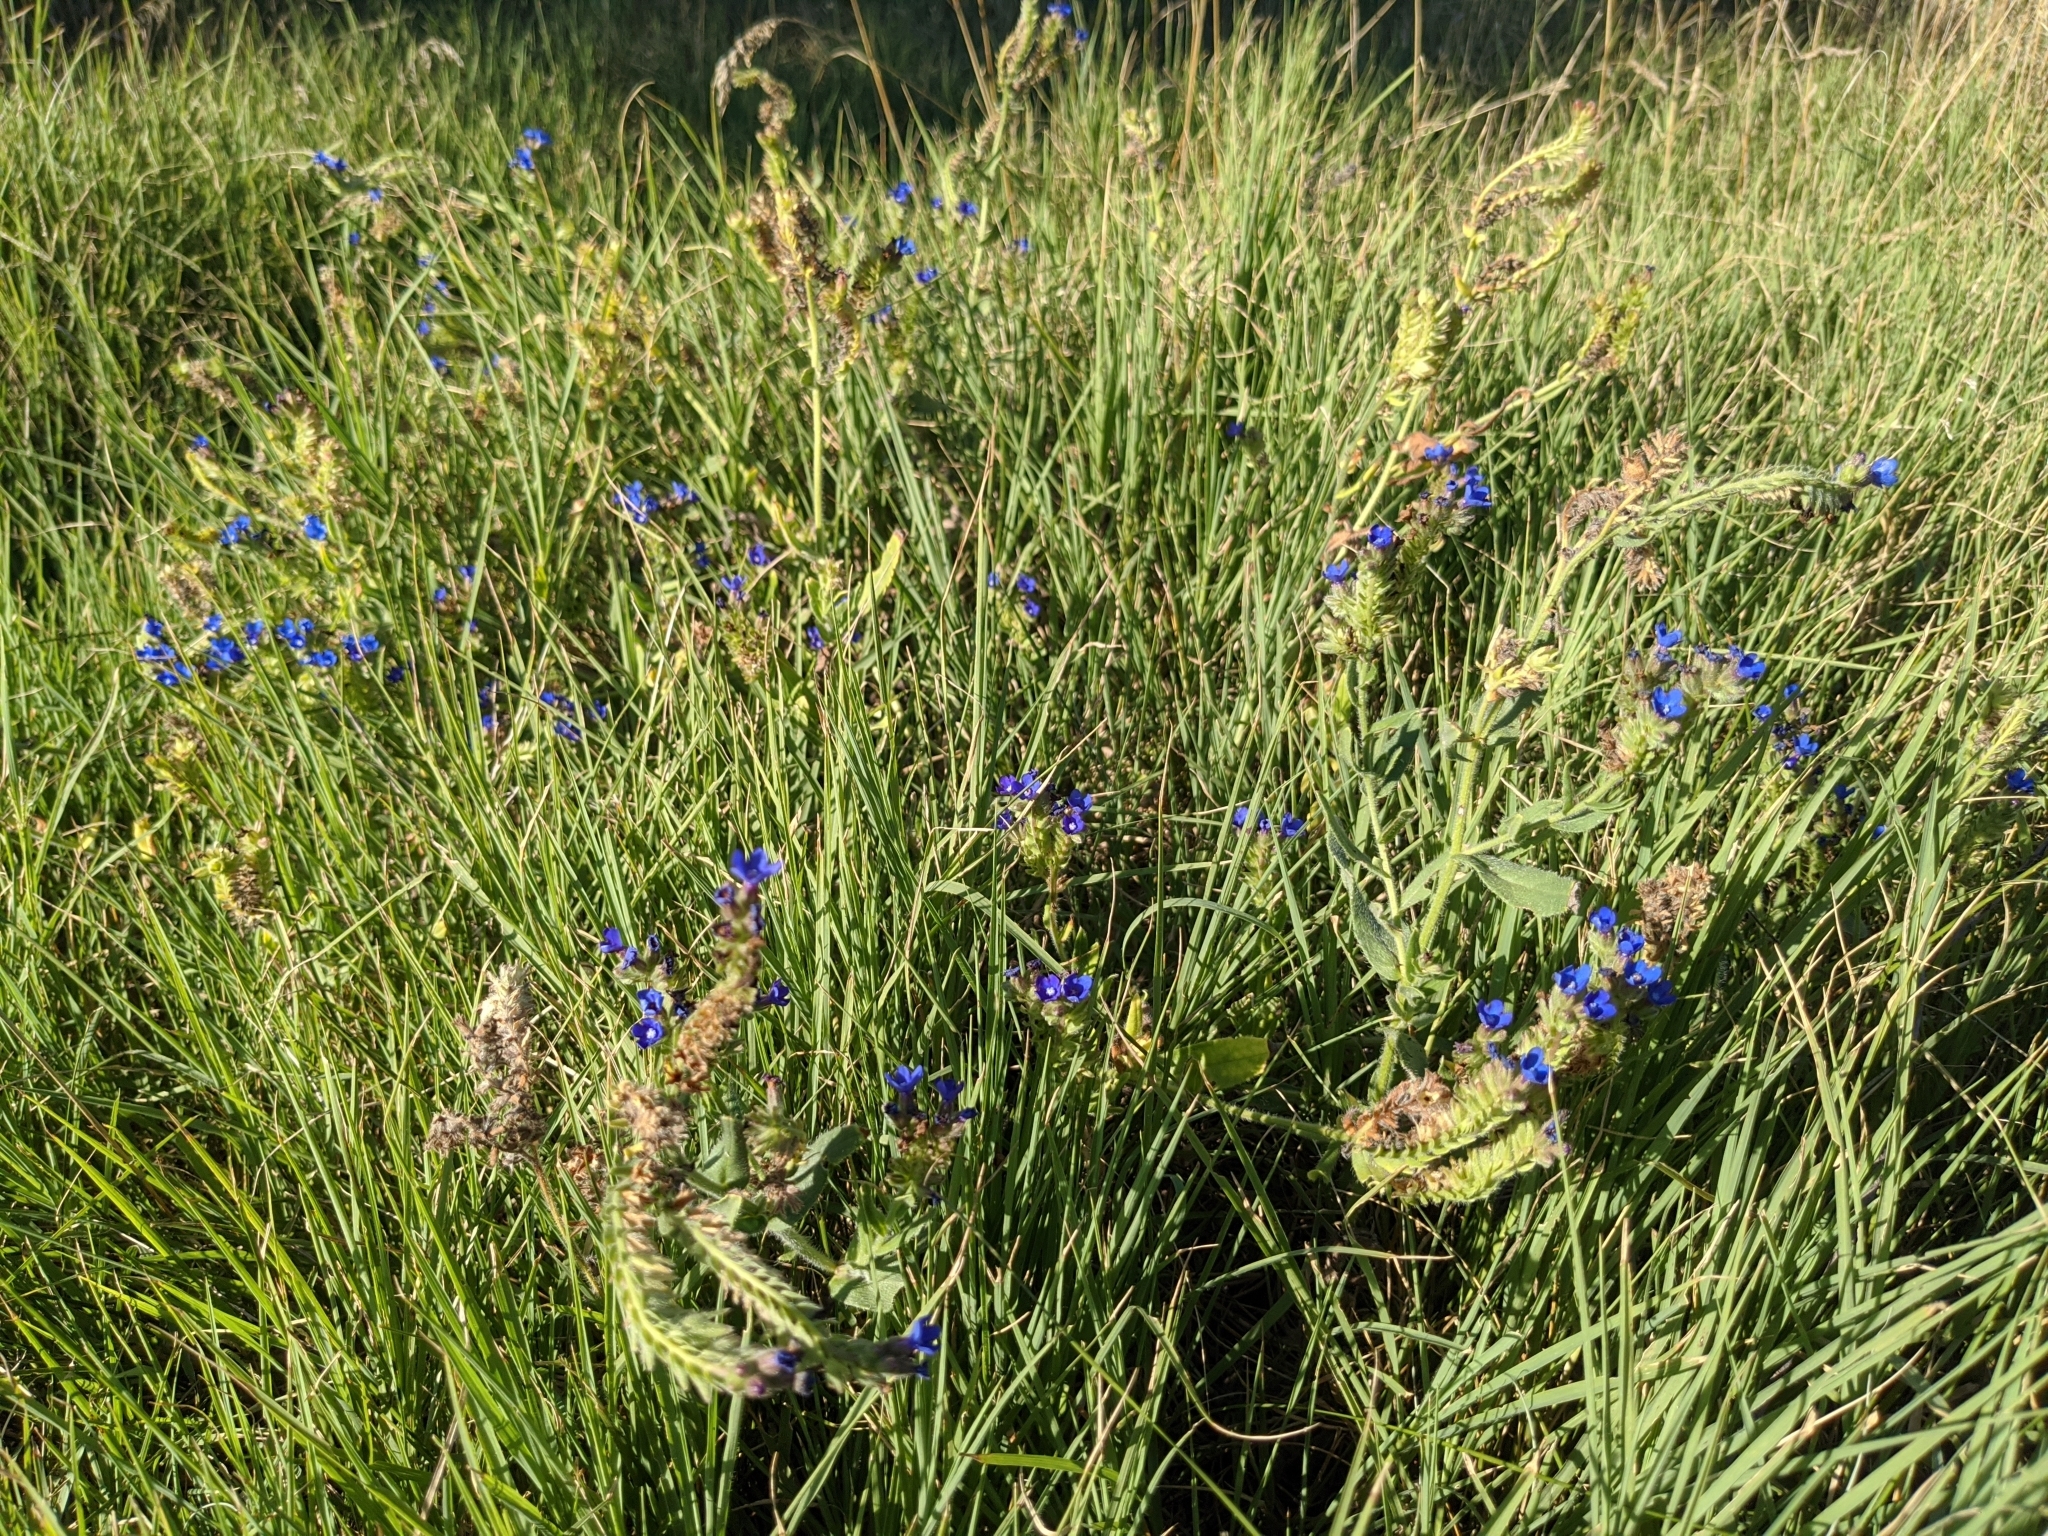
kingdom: Plantae
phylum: Tracheophyta
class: Magnoliopsida
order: Boraginales
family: Boraginaceae
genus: Anchusa
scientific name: Anchusa officinalis
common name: Alkanet
